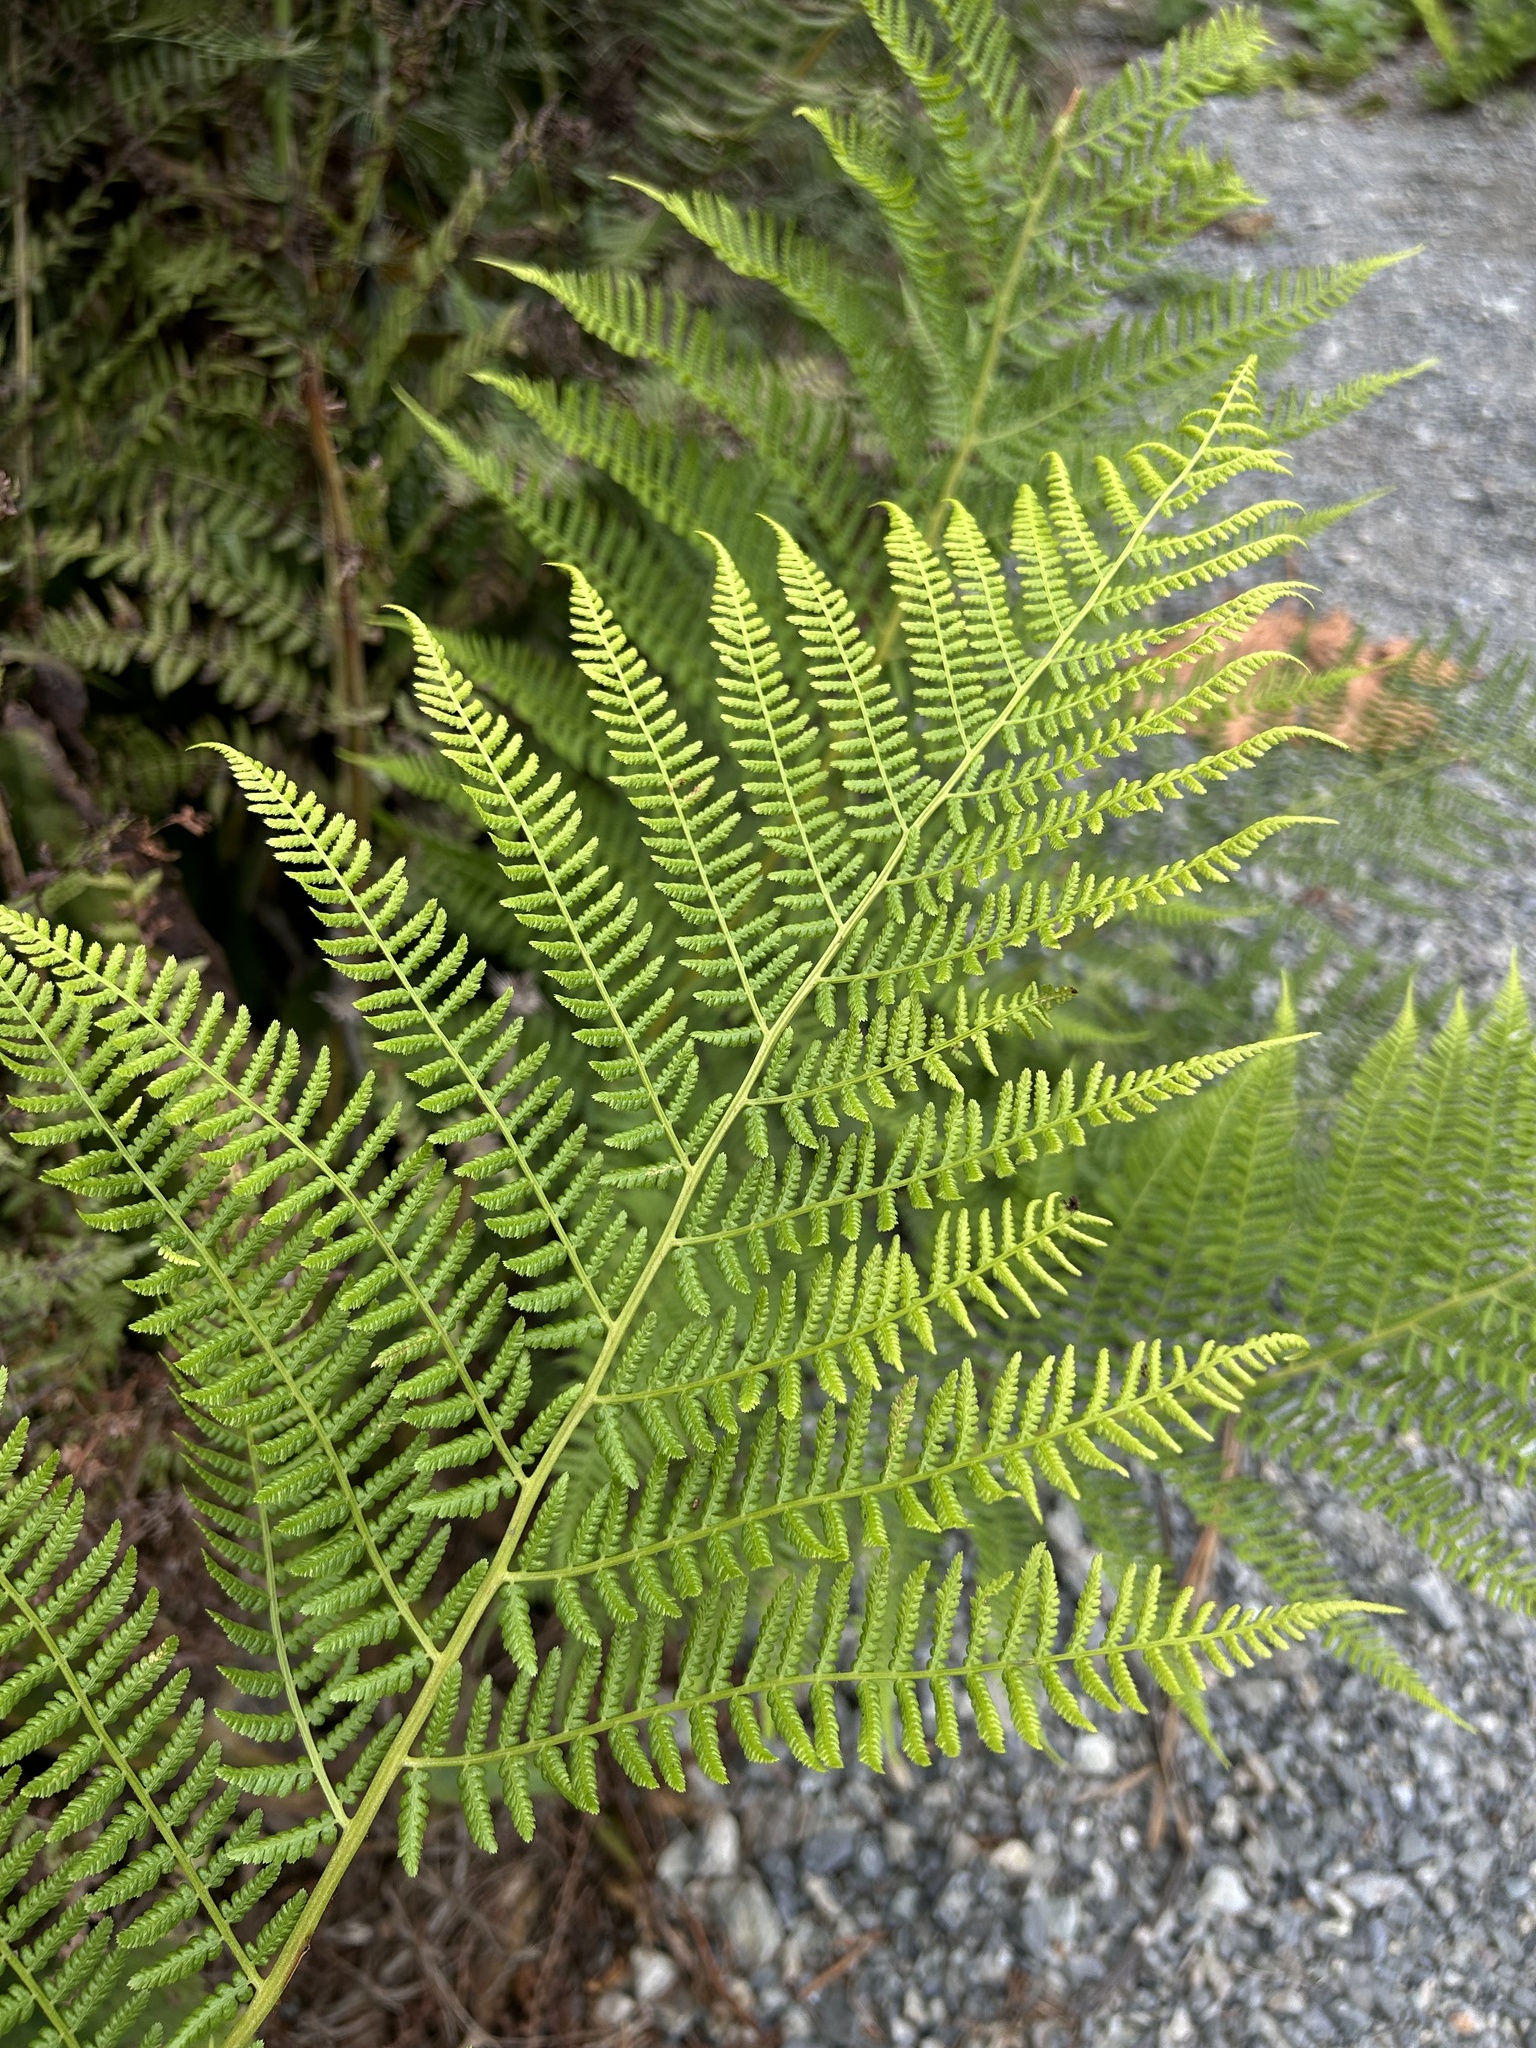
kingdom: Plantae
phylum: Tracheophyta
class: Polypodiopsida
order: Polypodiales
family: Athyriaceae
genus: Athyrium
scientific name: Athyrium filix-femina
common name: Lady fern
